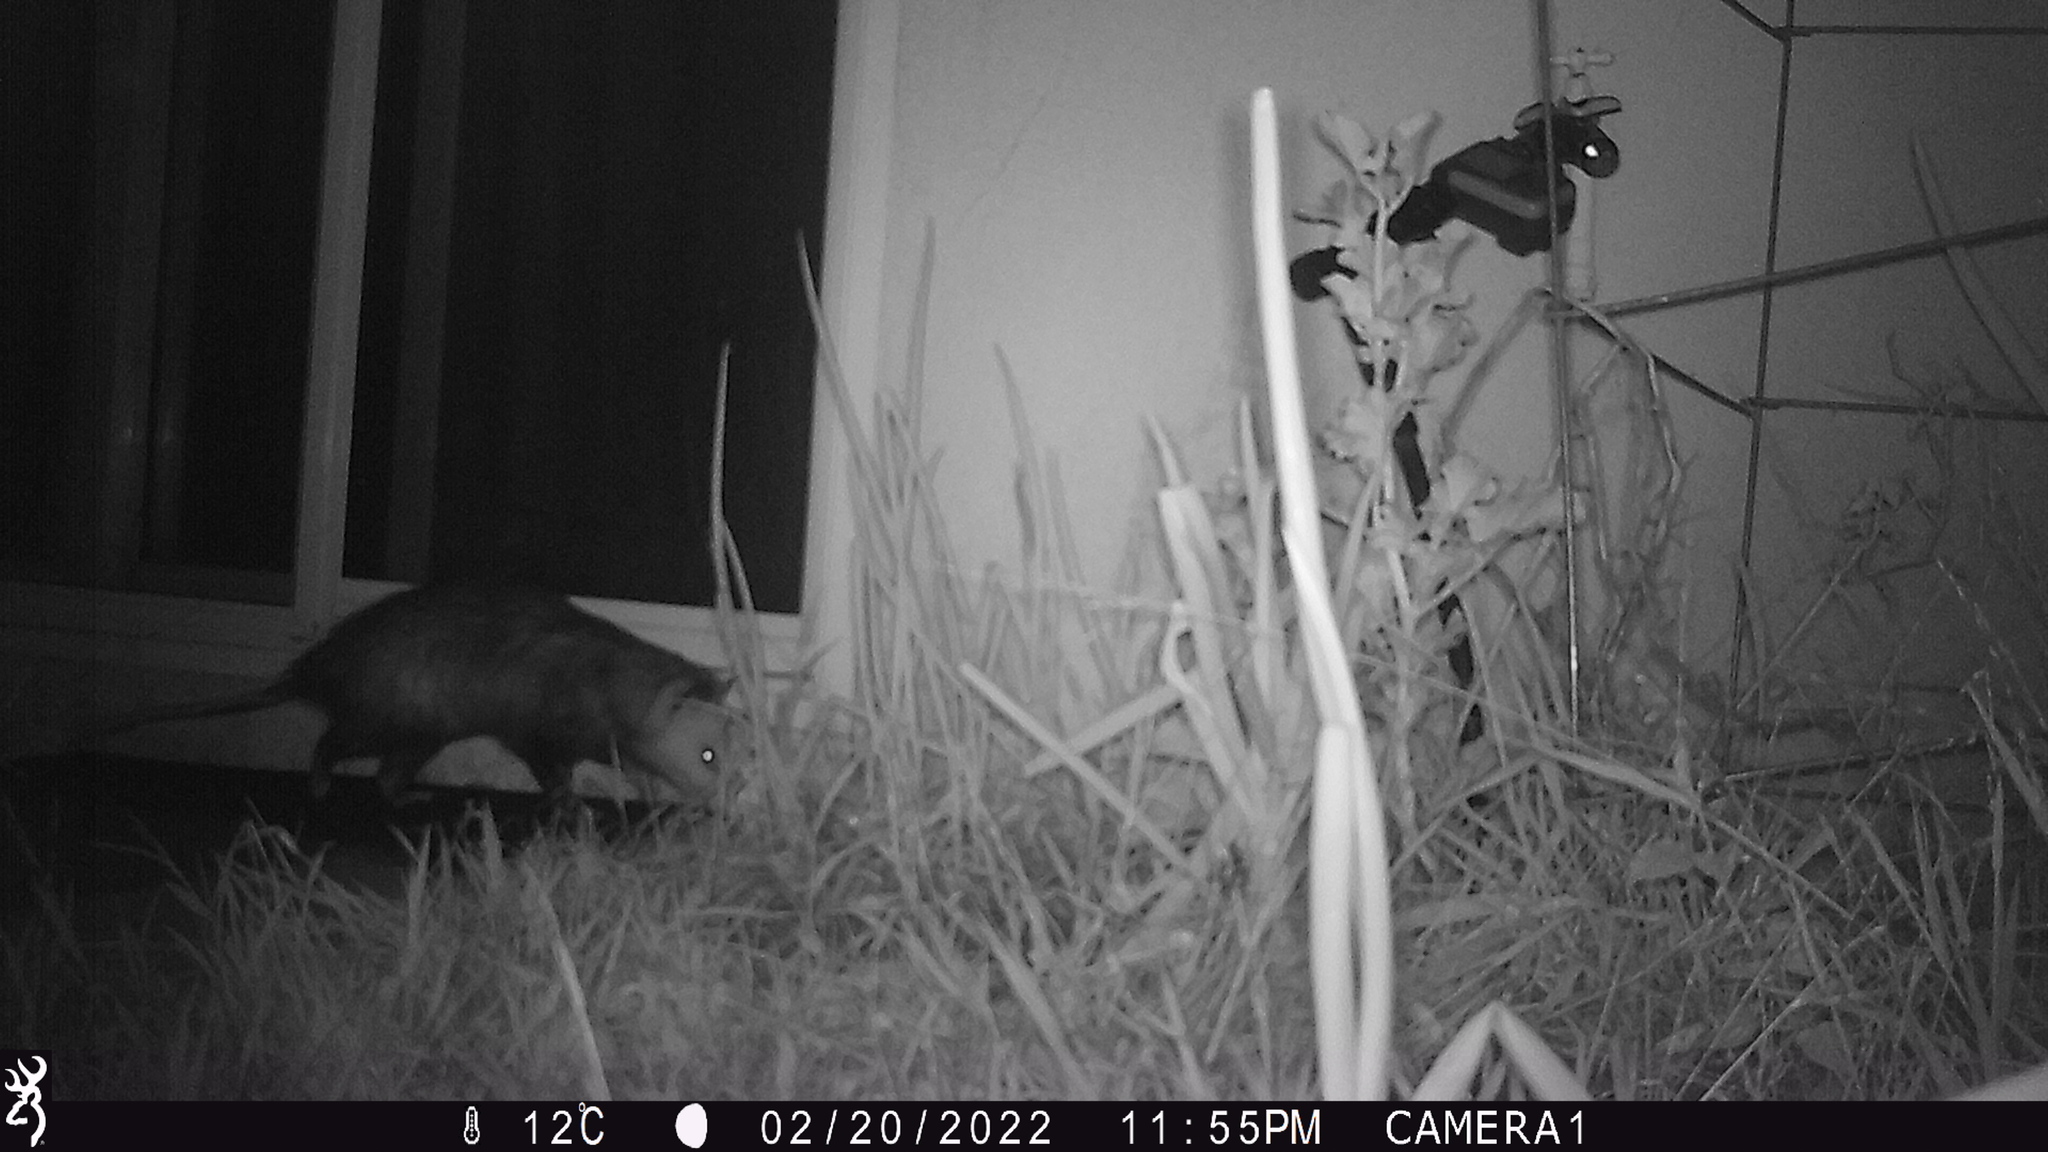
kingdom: Animalia
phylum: Chordata
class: Mammalia
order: Didelphimorphia
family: Didelphidae
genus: Didelphis
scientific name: Didelphis virginiana
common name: Virginia opossum
